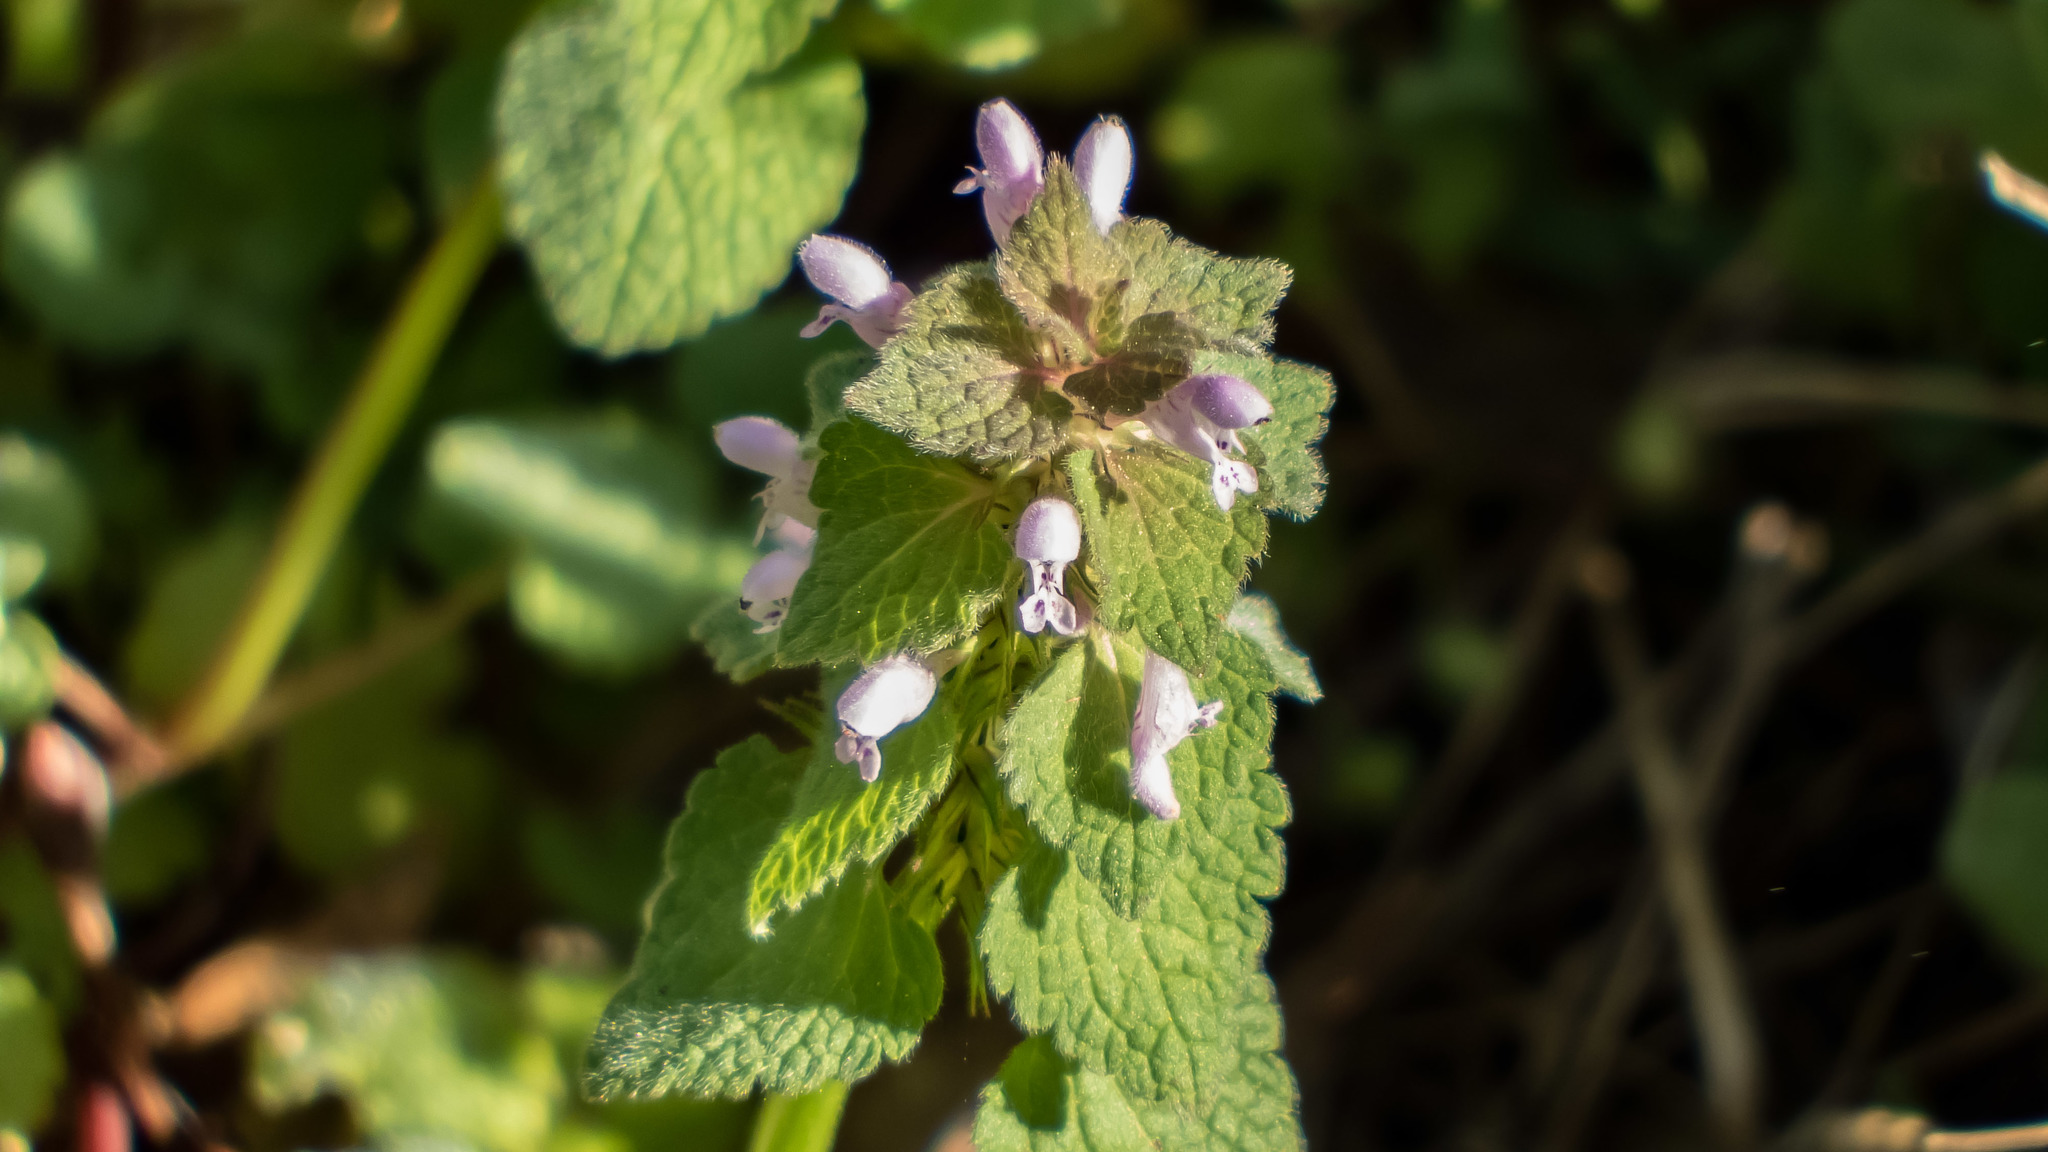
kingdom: Plantae
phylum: Tracheophyta
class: Magnoliopsida
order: Lamiales
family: Lamiaceae
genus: Lamium
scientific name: Lamium purpureum
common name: Red dead-nettle
